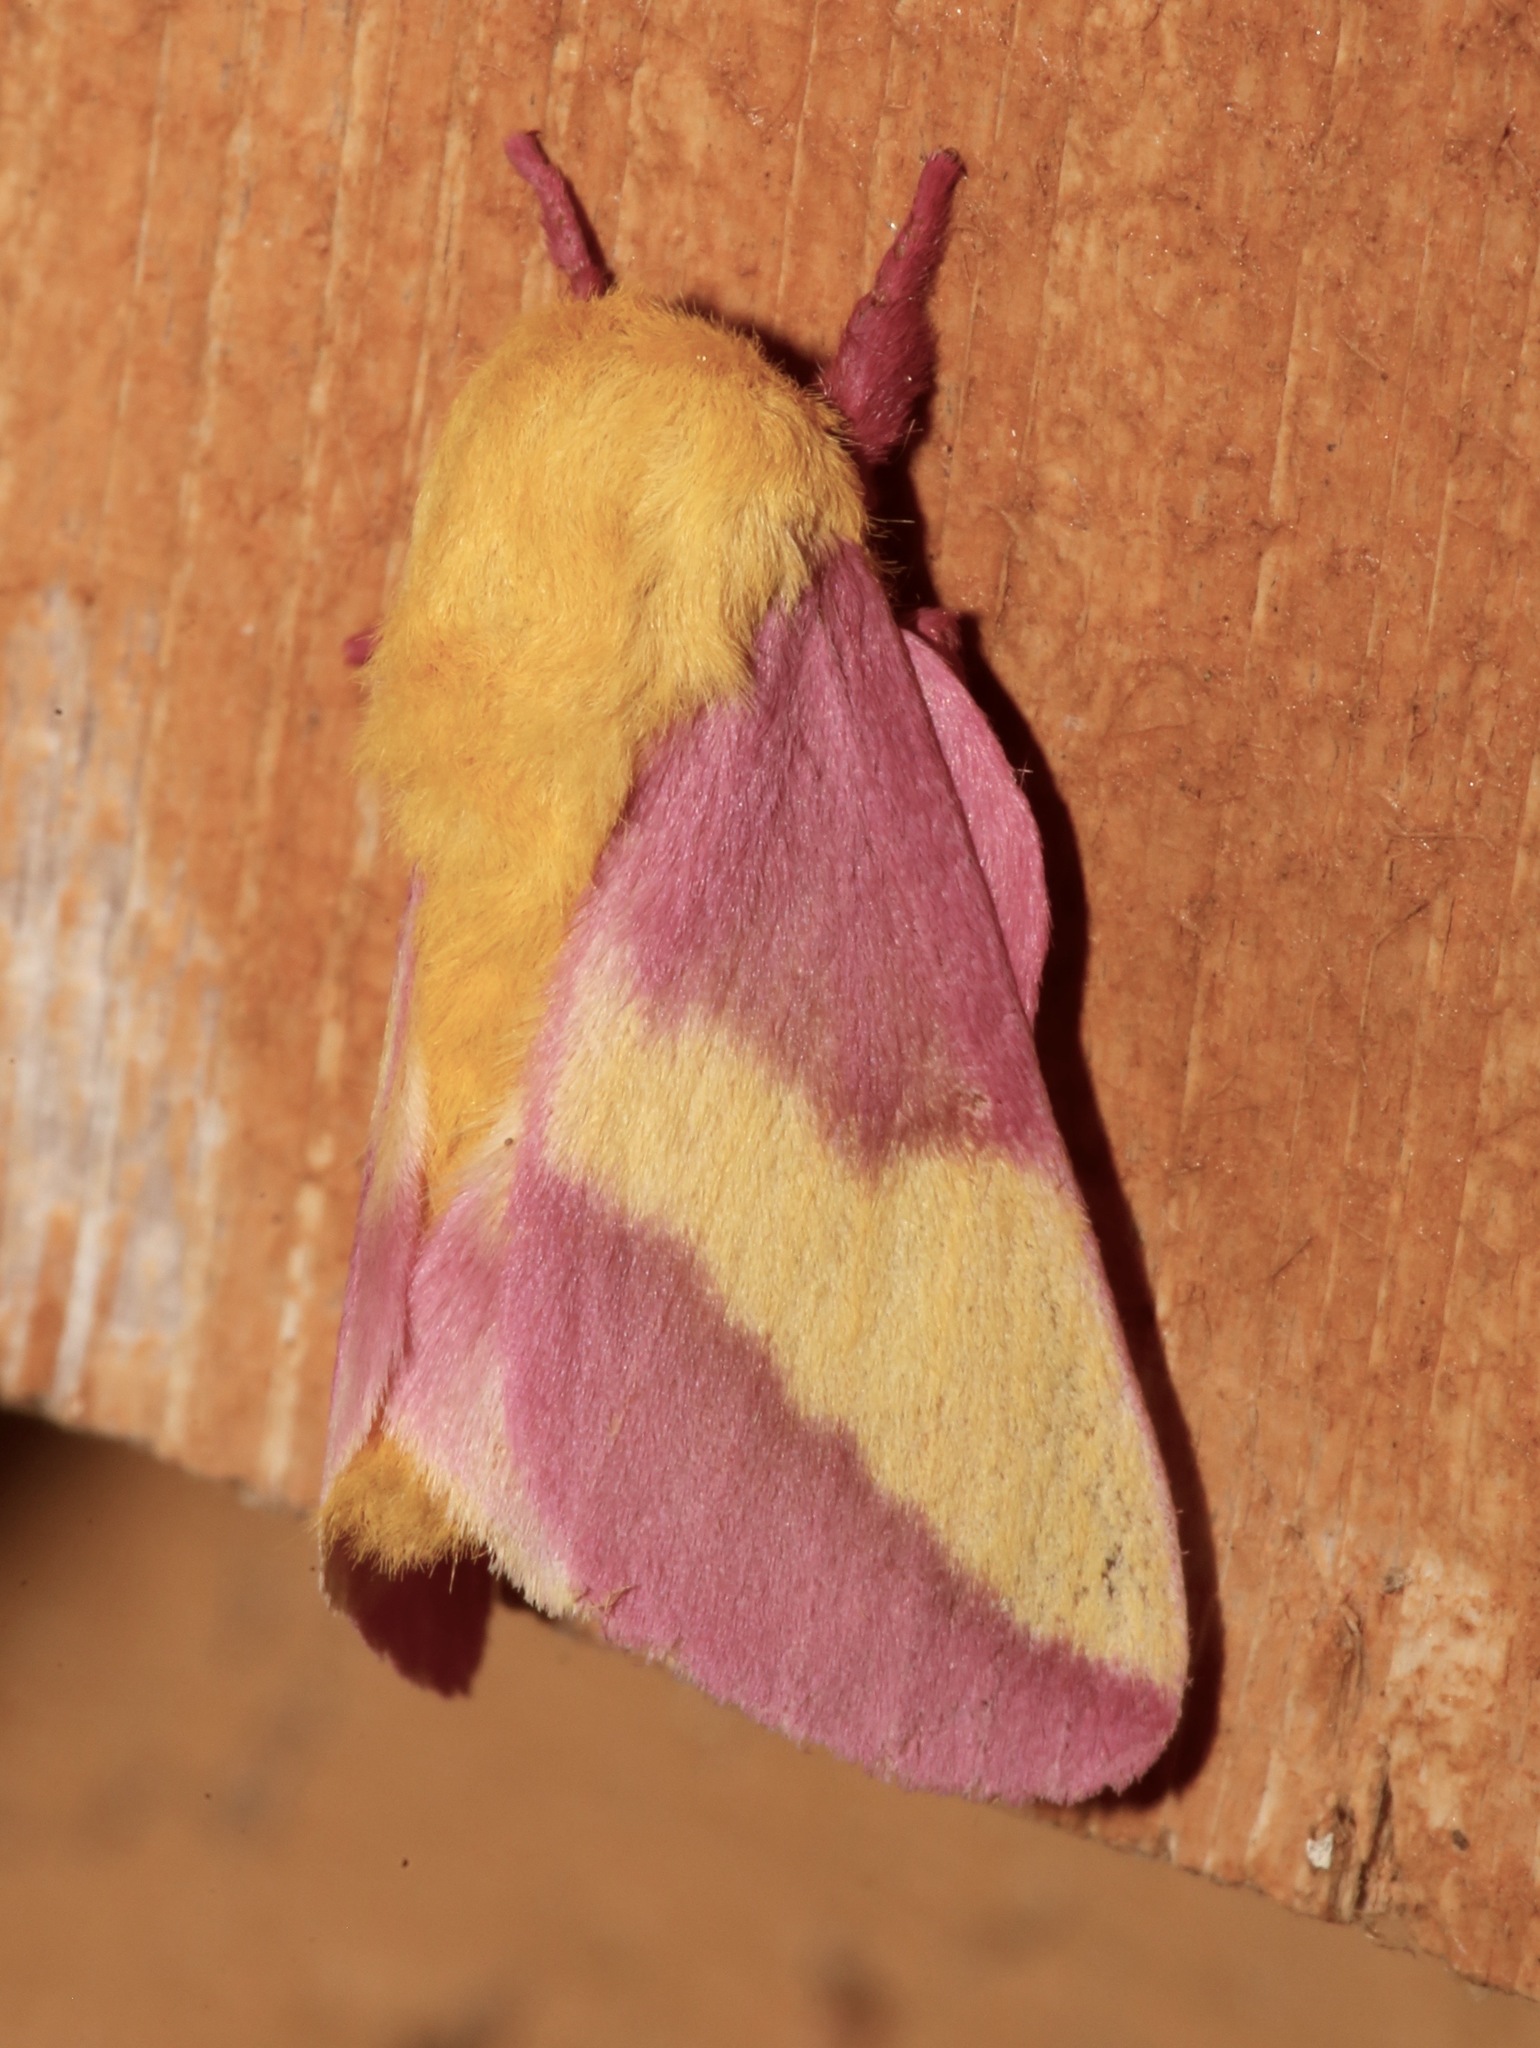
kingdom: Animalia
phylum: Arthropoda
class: Insecta
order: Lepidoptera
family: Saturniidae
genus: Dryocampa
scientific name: Dryocampa rubicunda
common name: Rosy maple moth
